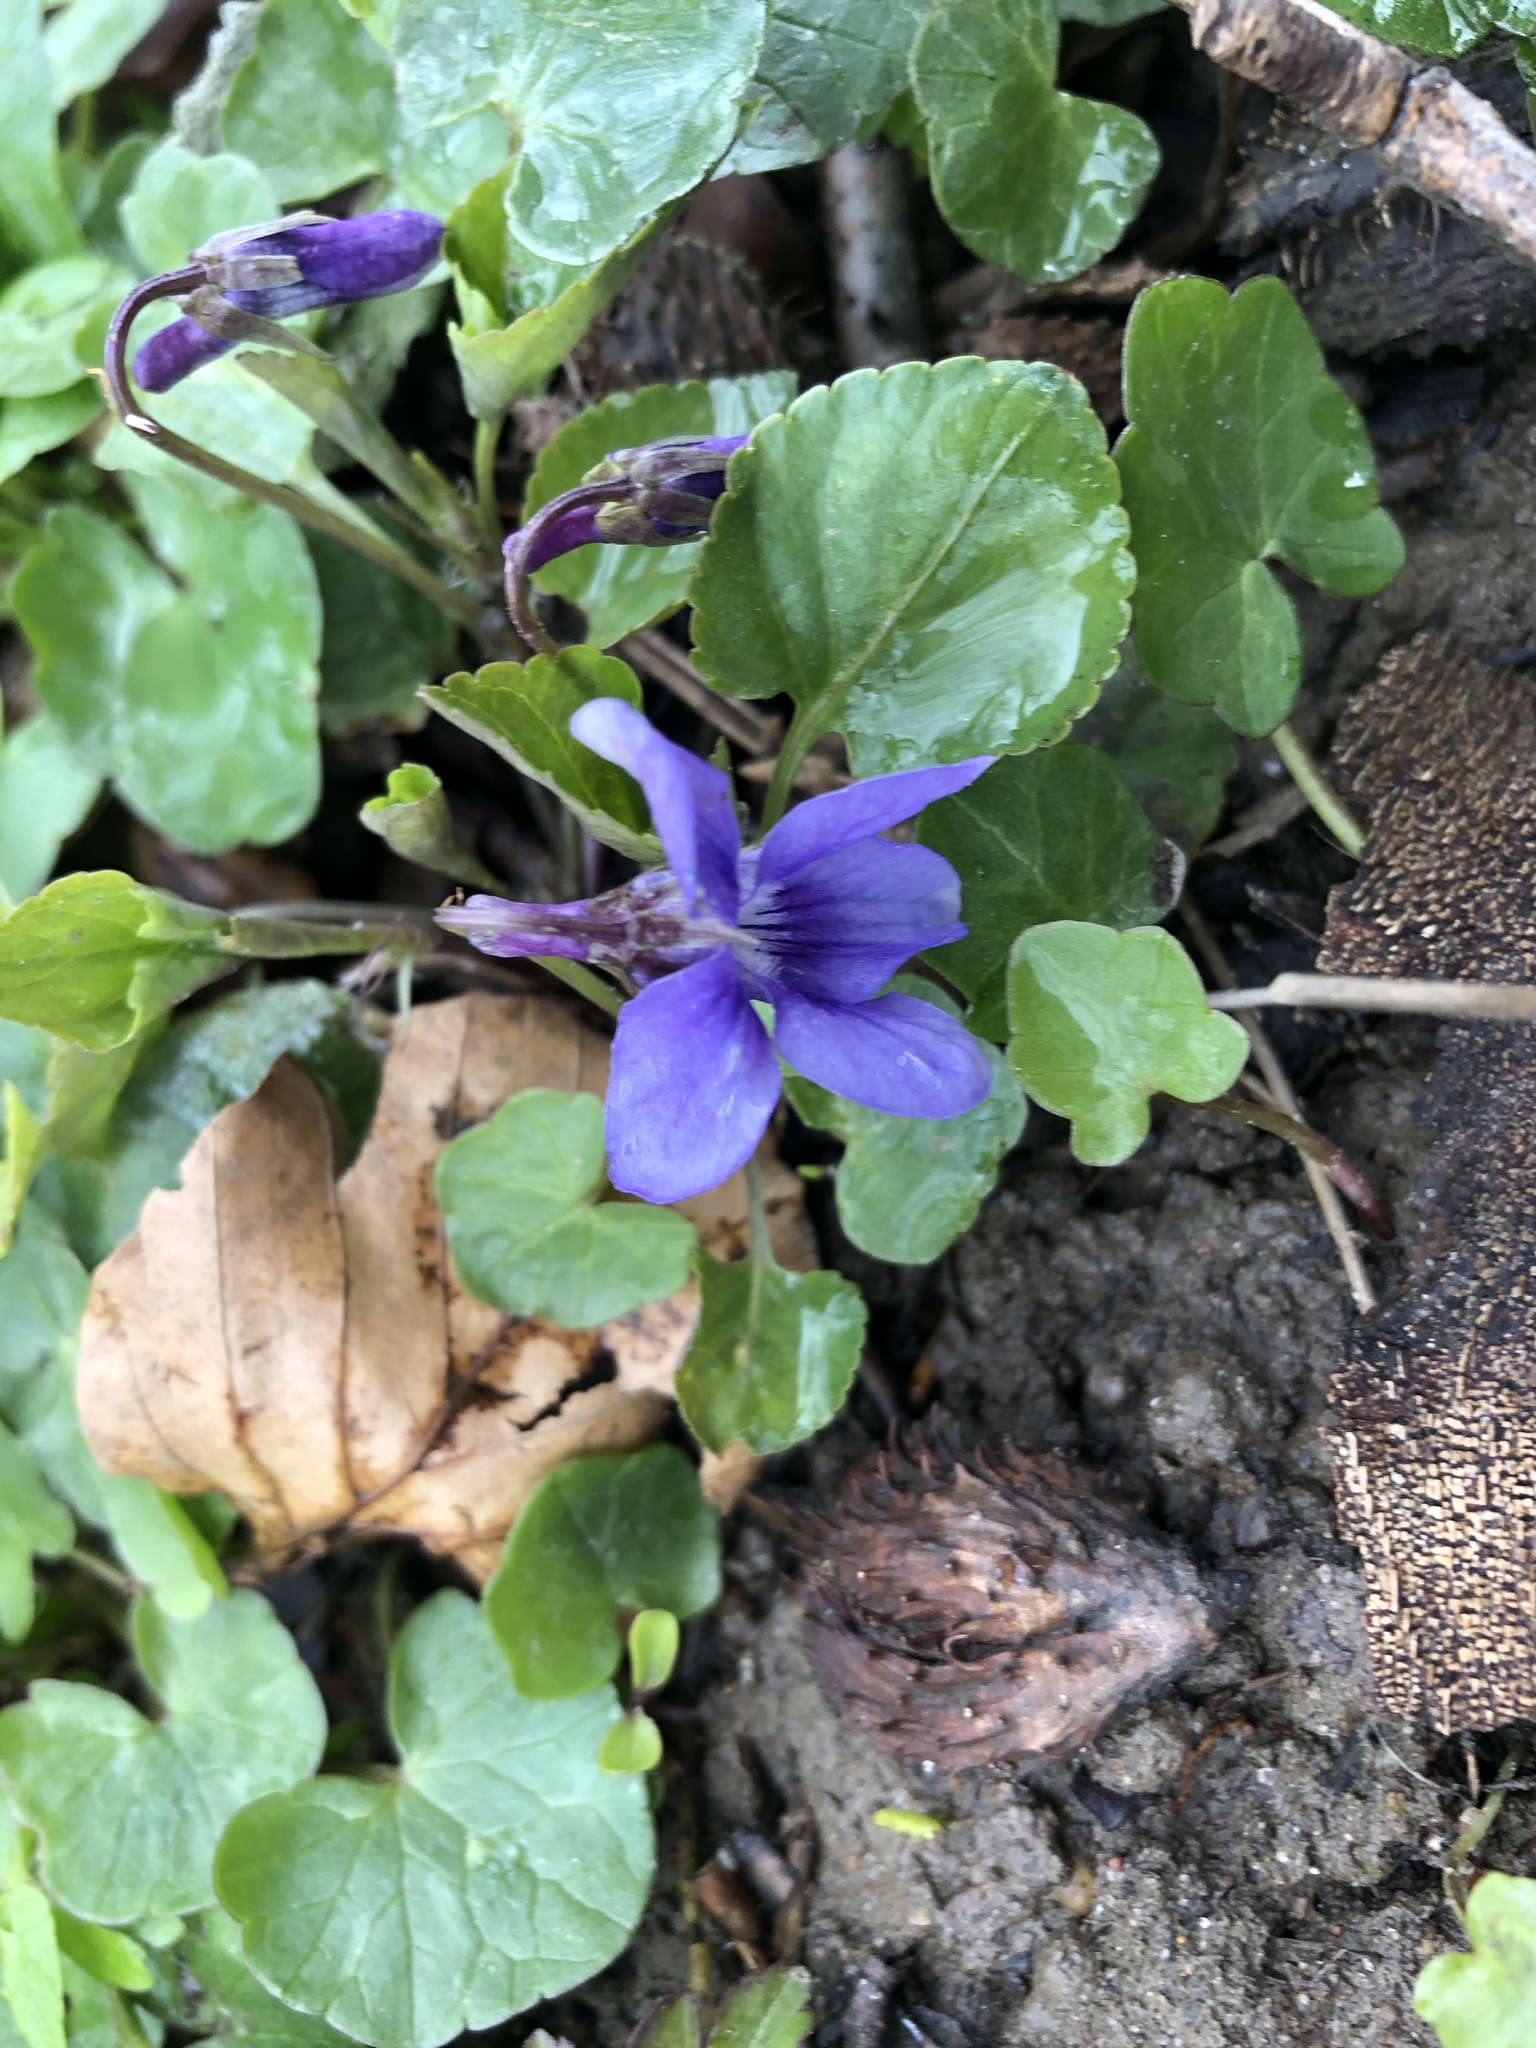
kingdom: Plantae
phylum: Tracheophyta
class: Magnoliopsida
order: Malpighiales
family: Violaceae
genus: Viola
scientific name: Viola reichenbachiana
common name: Early dog-violet
